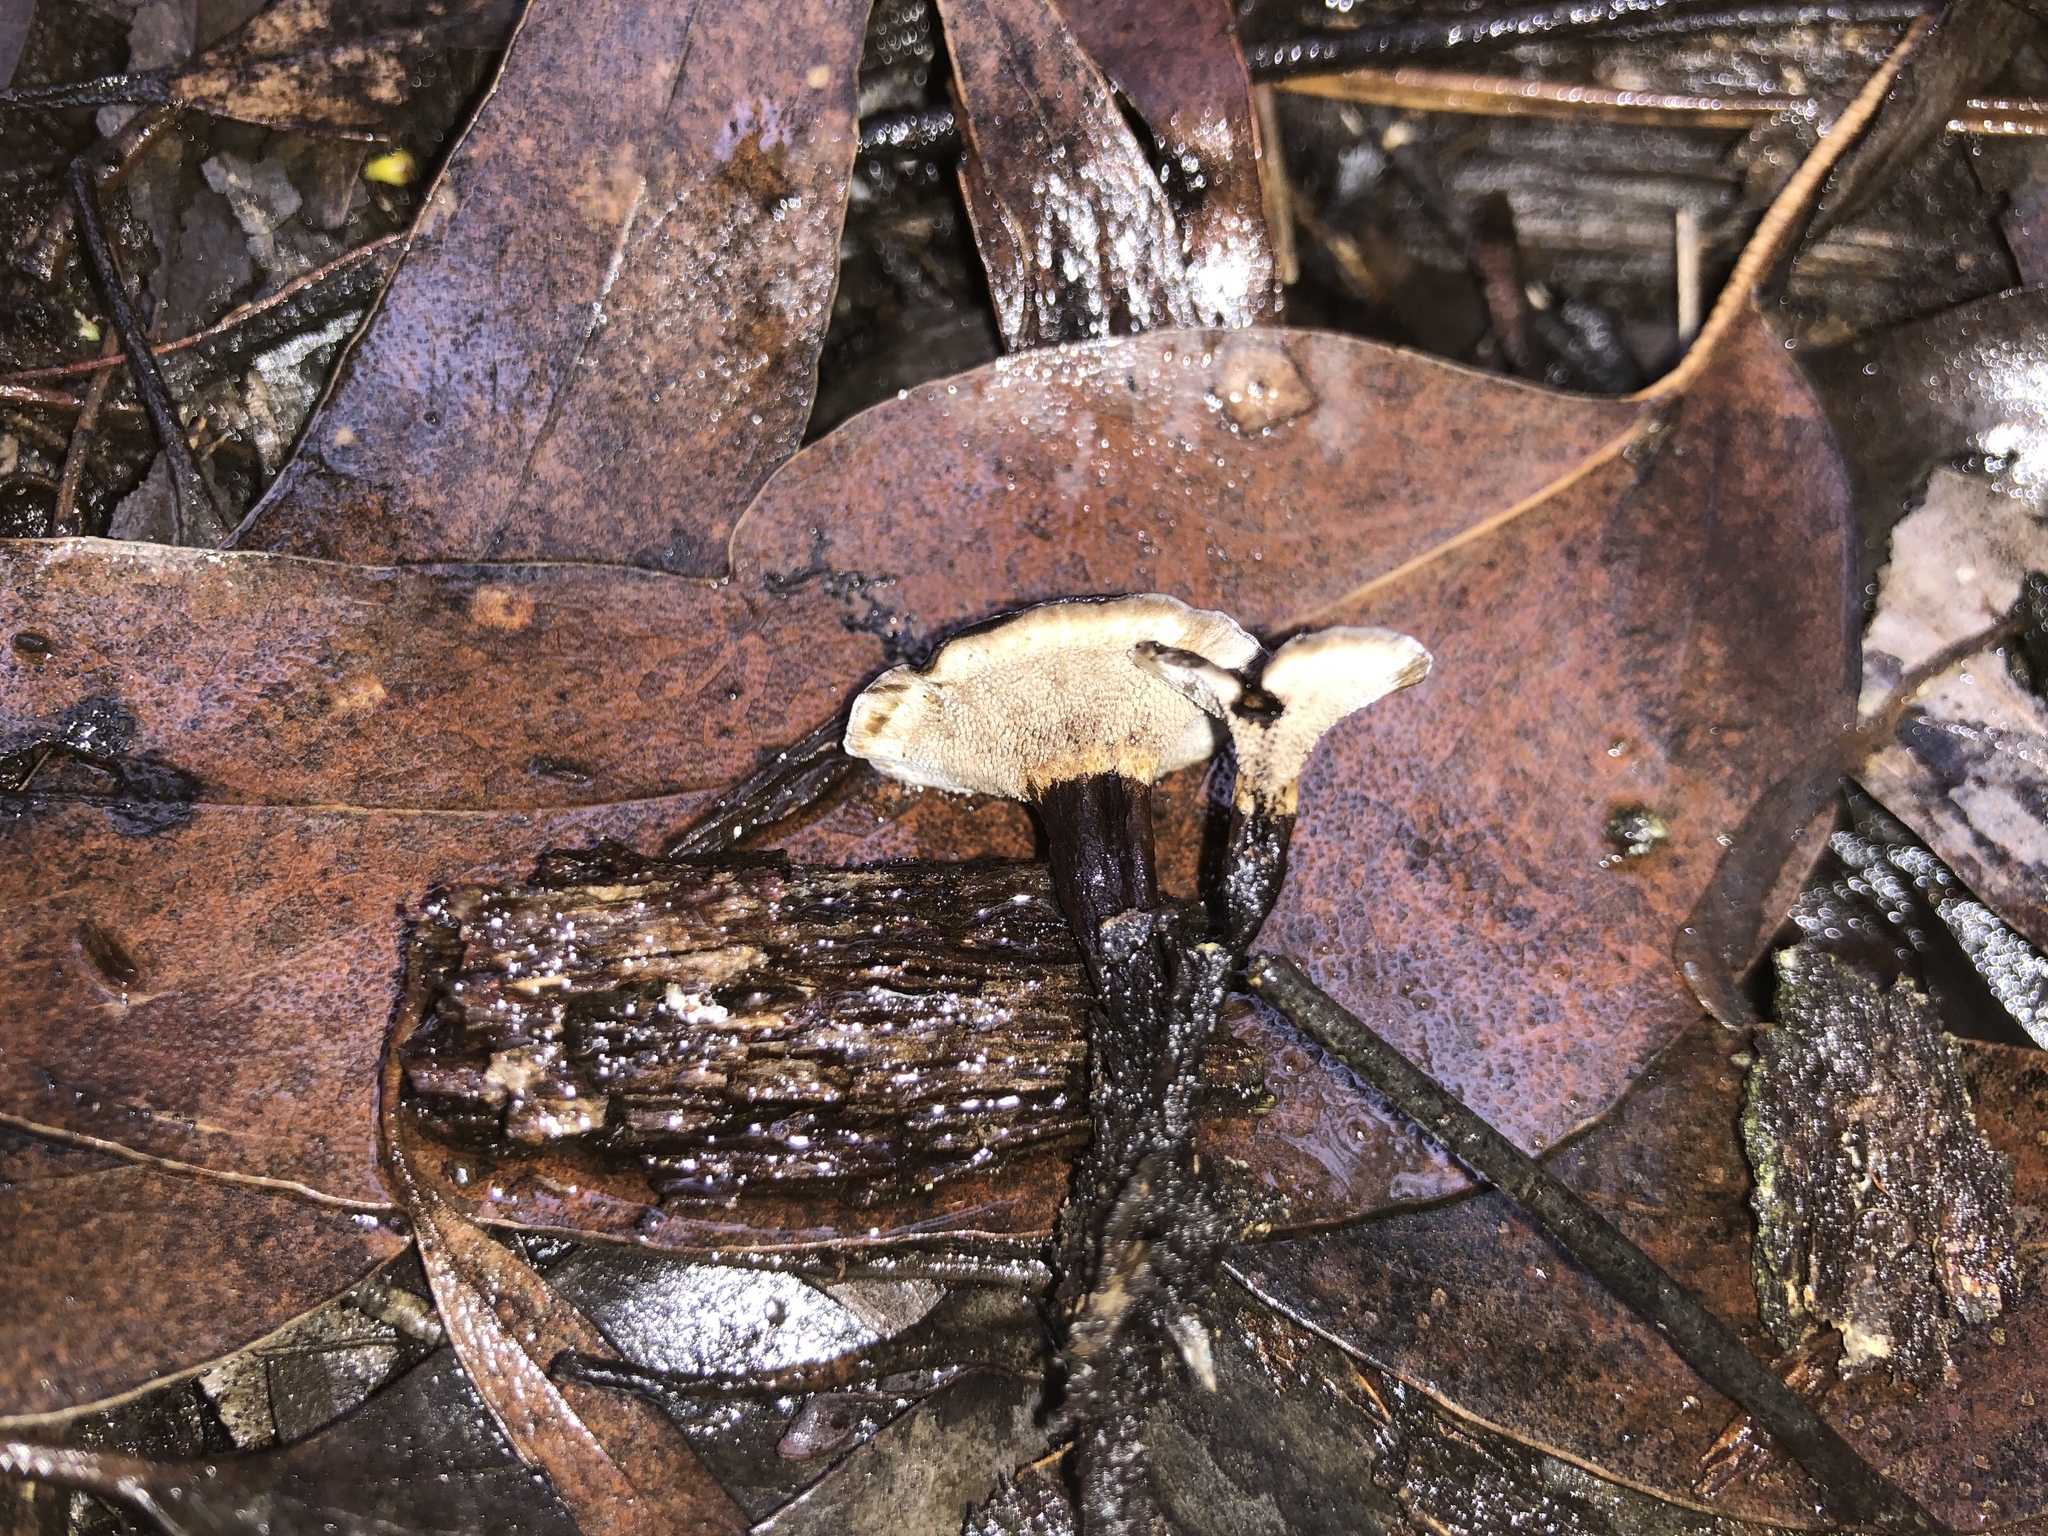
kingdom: Fungi
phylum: Basidiomycota
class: Agaricomycetes
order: Thelephorales
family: Thelephoraceae
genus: Phellodon
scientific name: Phellodon niger
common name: Black tooth
